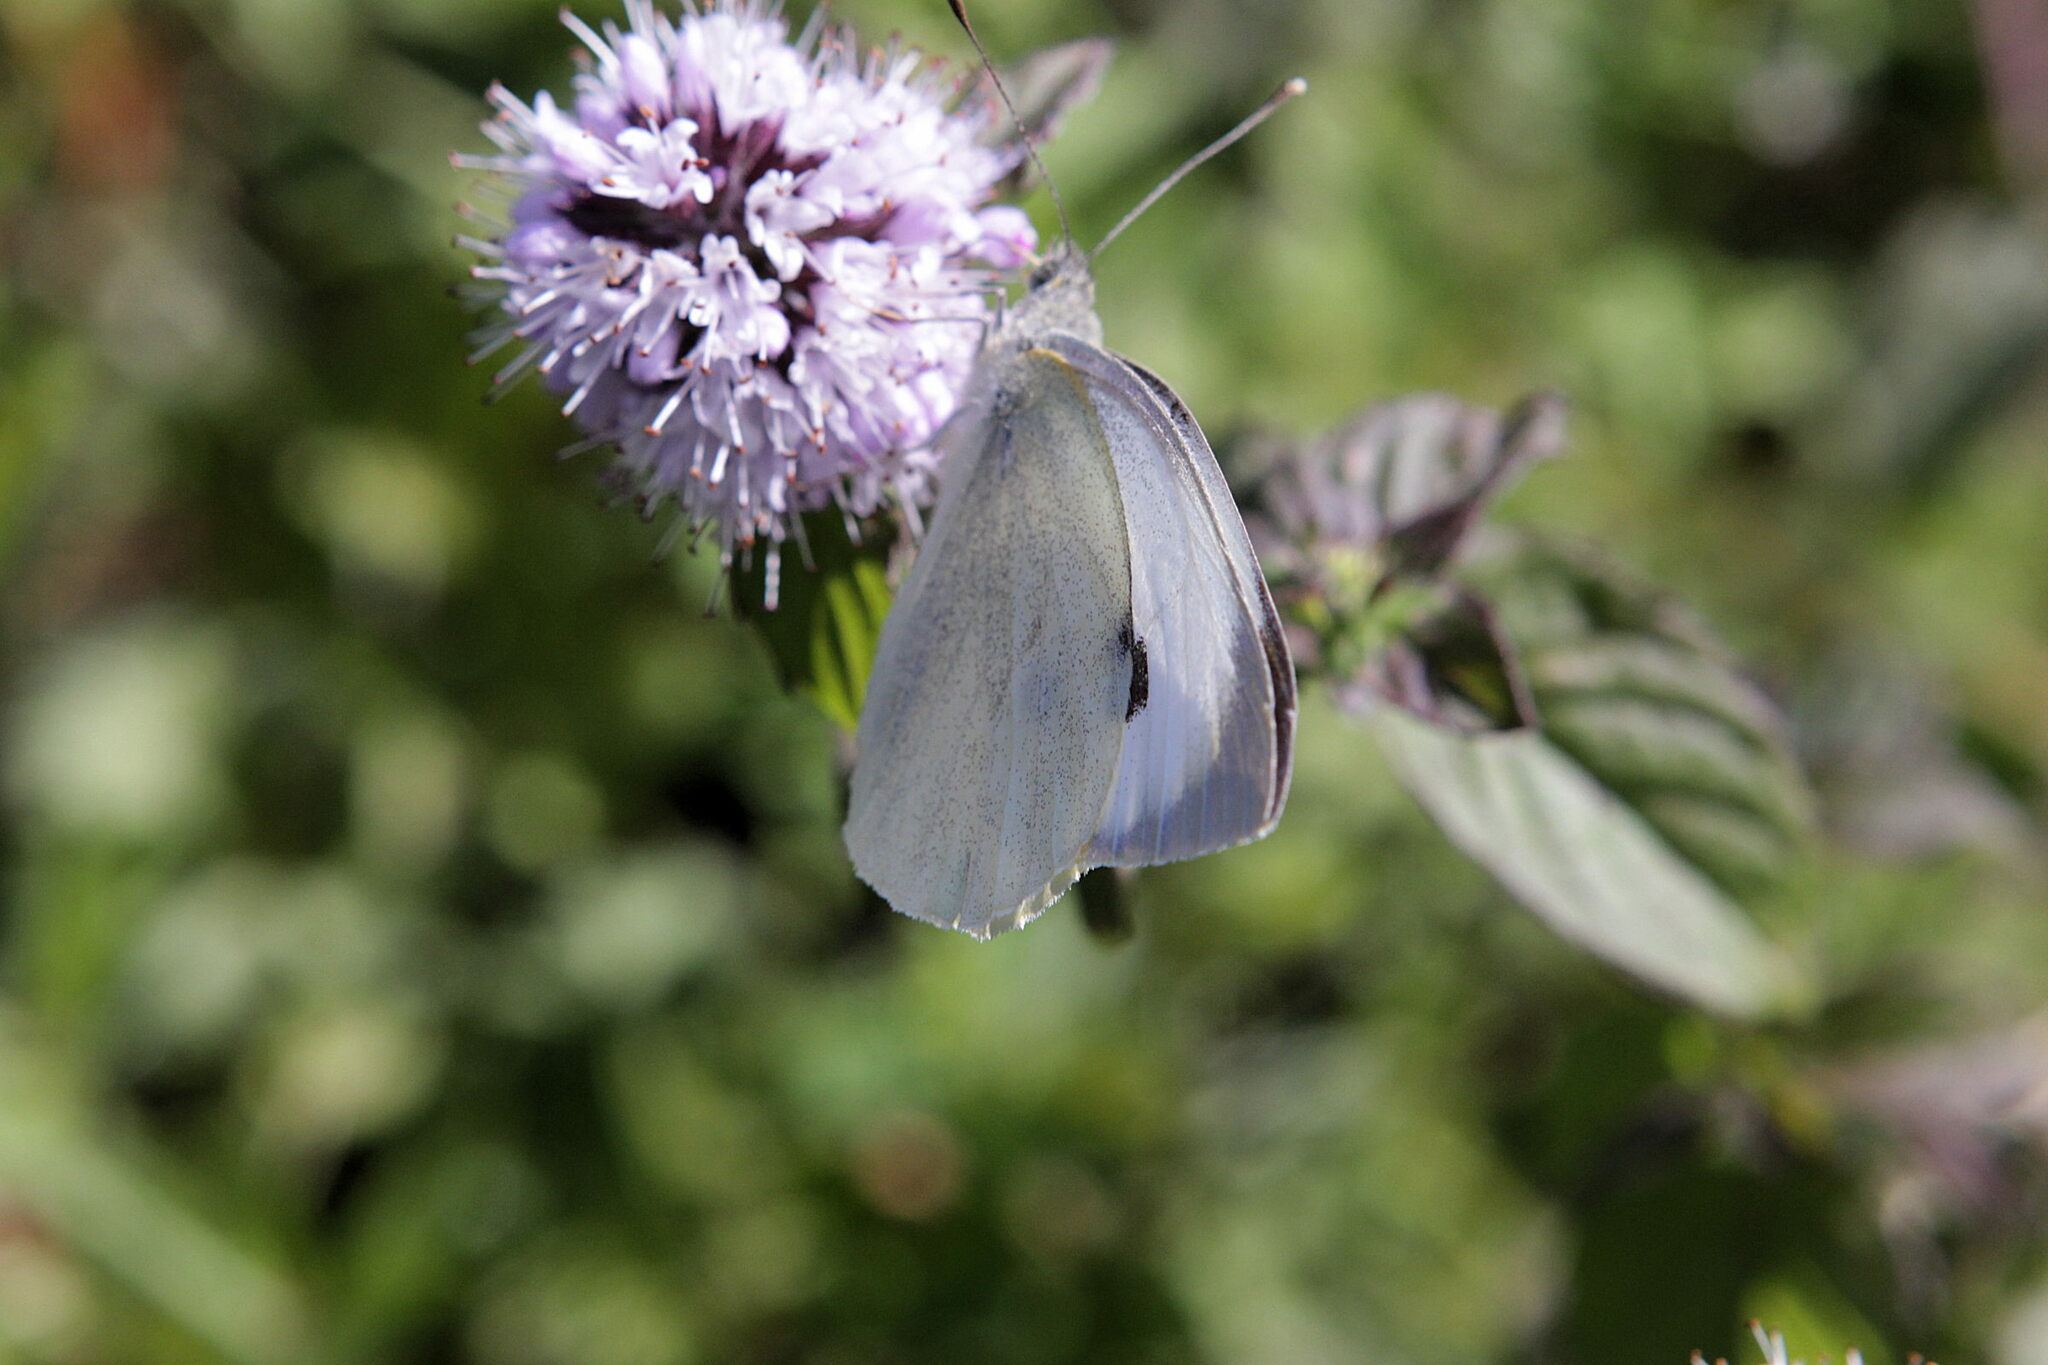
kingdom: Animalia
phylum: Arthropoda
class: Insecta
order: Lepidoptera
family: Pieridae
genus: Pieris
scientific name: Pieris brassicae
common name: Large white
